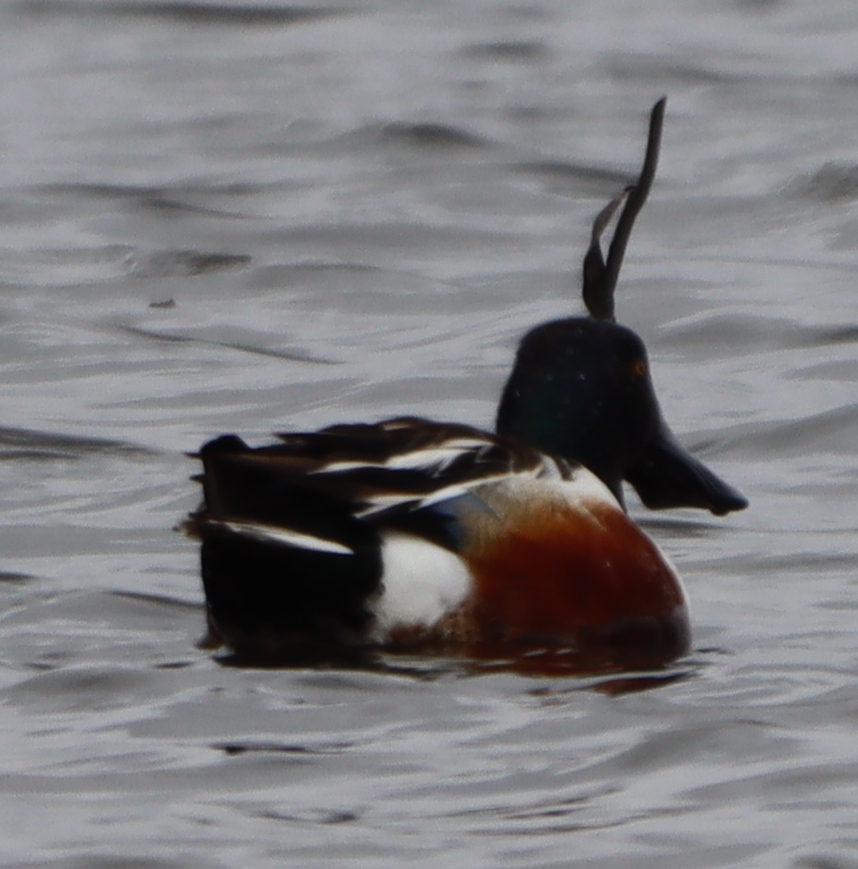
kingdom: Animalia
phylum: Chordata
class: Aves
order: Anseriformes
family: Anatidae
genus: Spatula
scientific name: Spatula clypeata
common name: Northern shoveler
